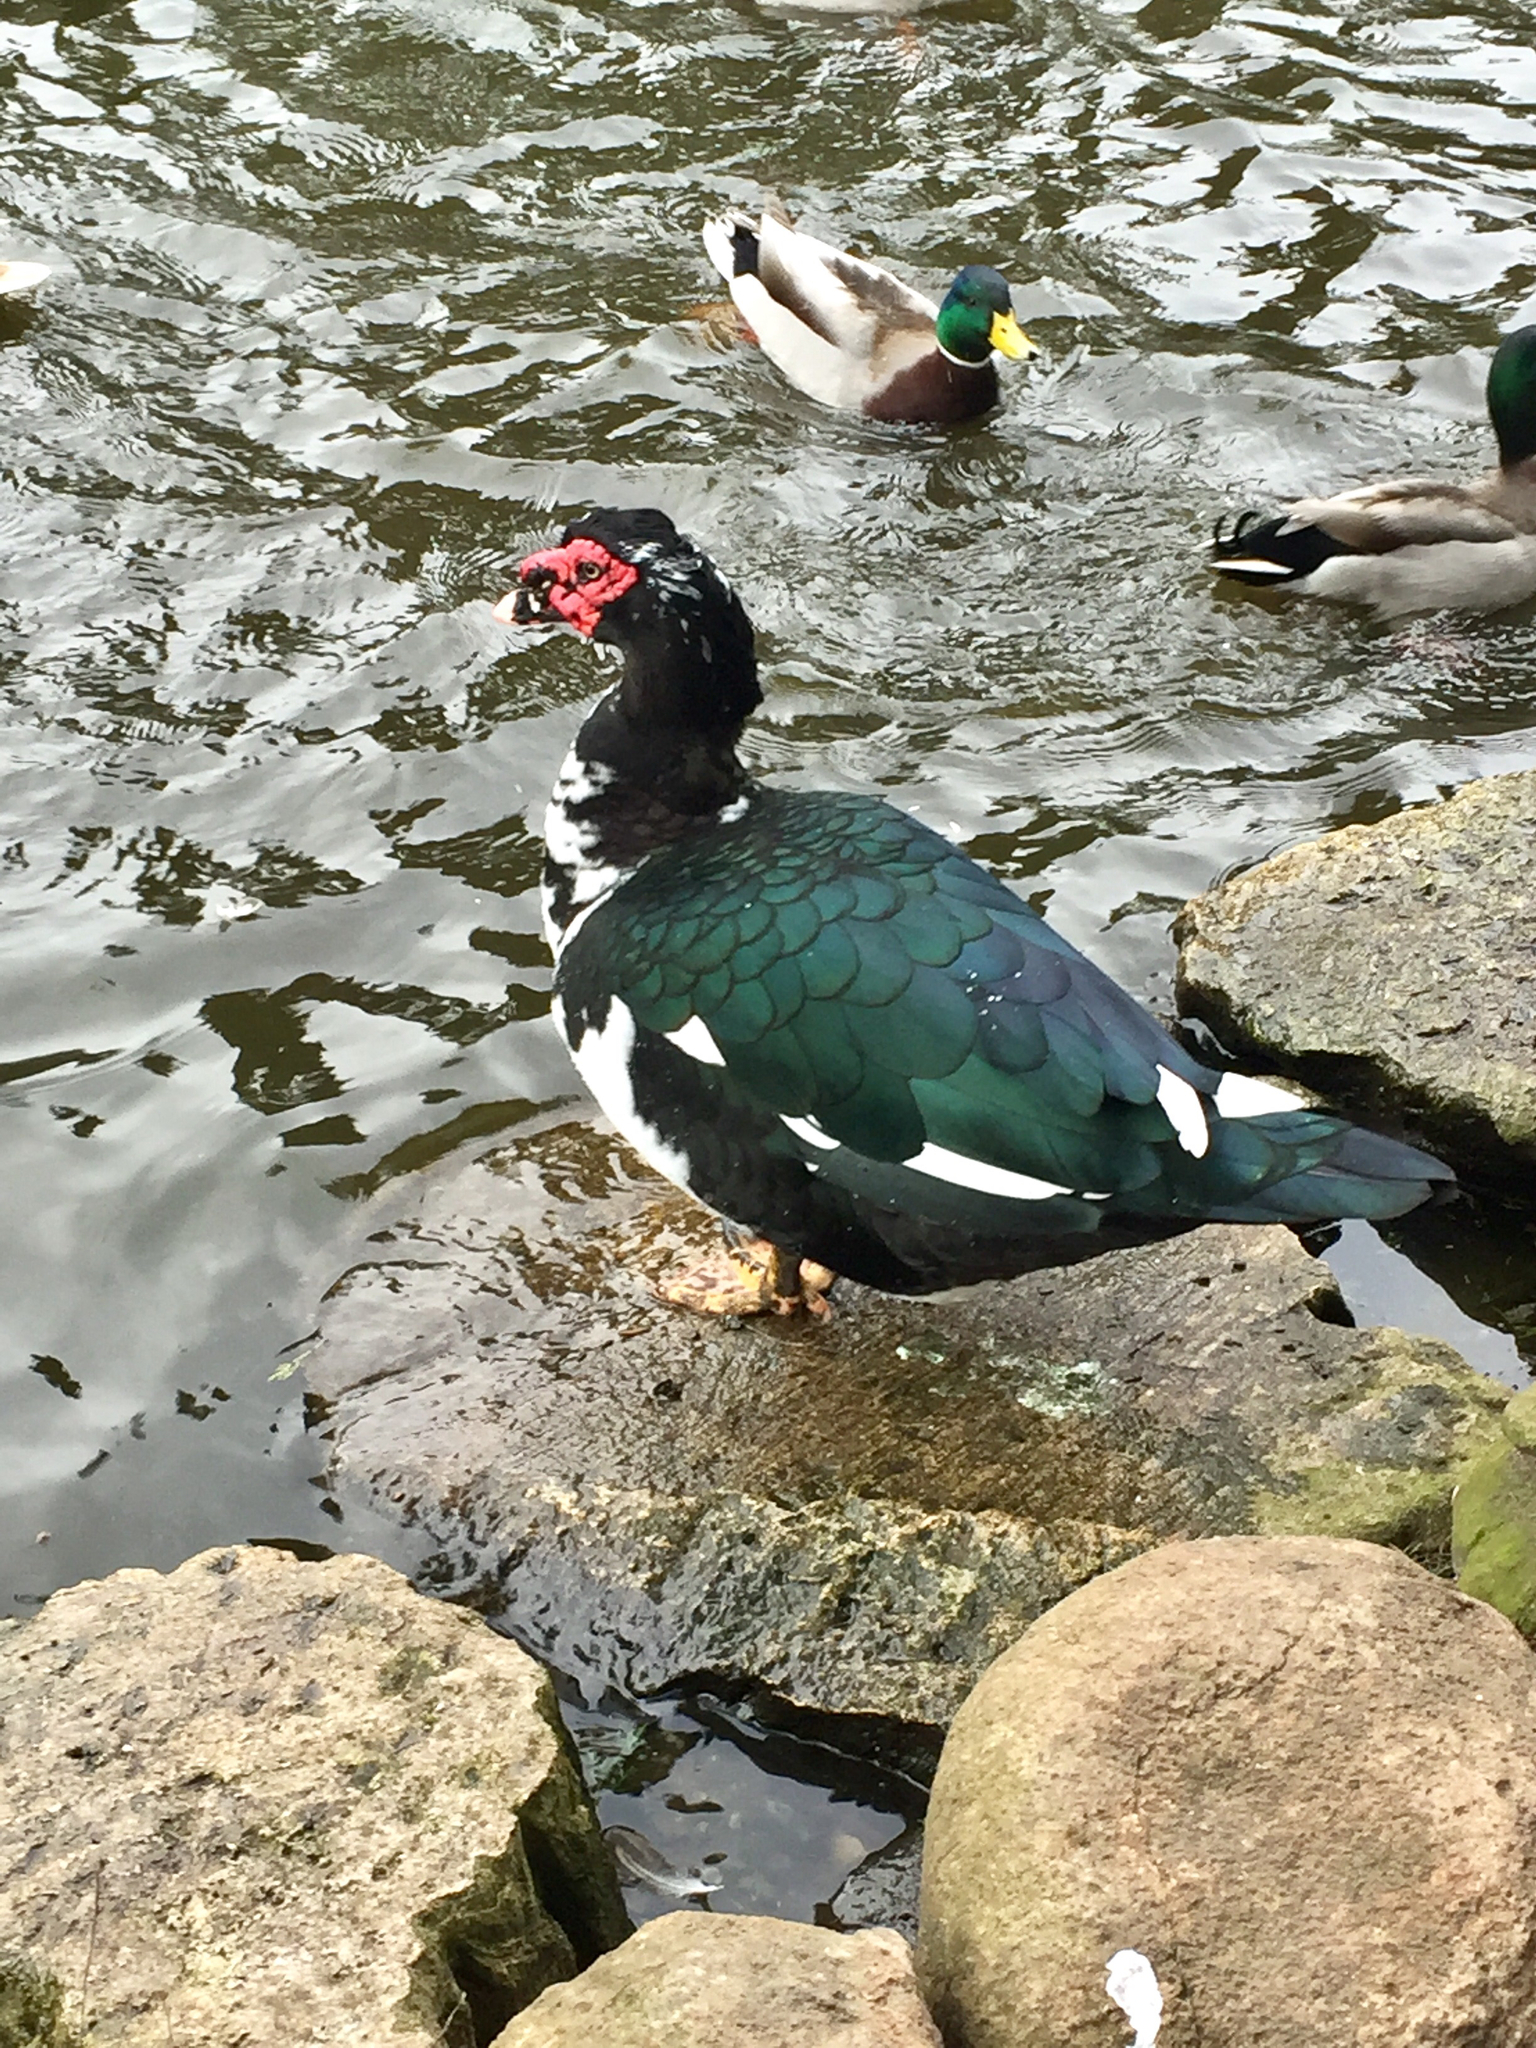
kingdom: Animalia
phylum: Chordata
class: Aves
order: Anseriformes
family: Anatidae
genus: Cairina
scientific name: Cairina moschata
